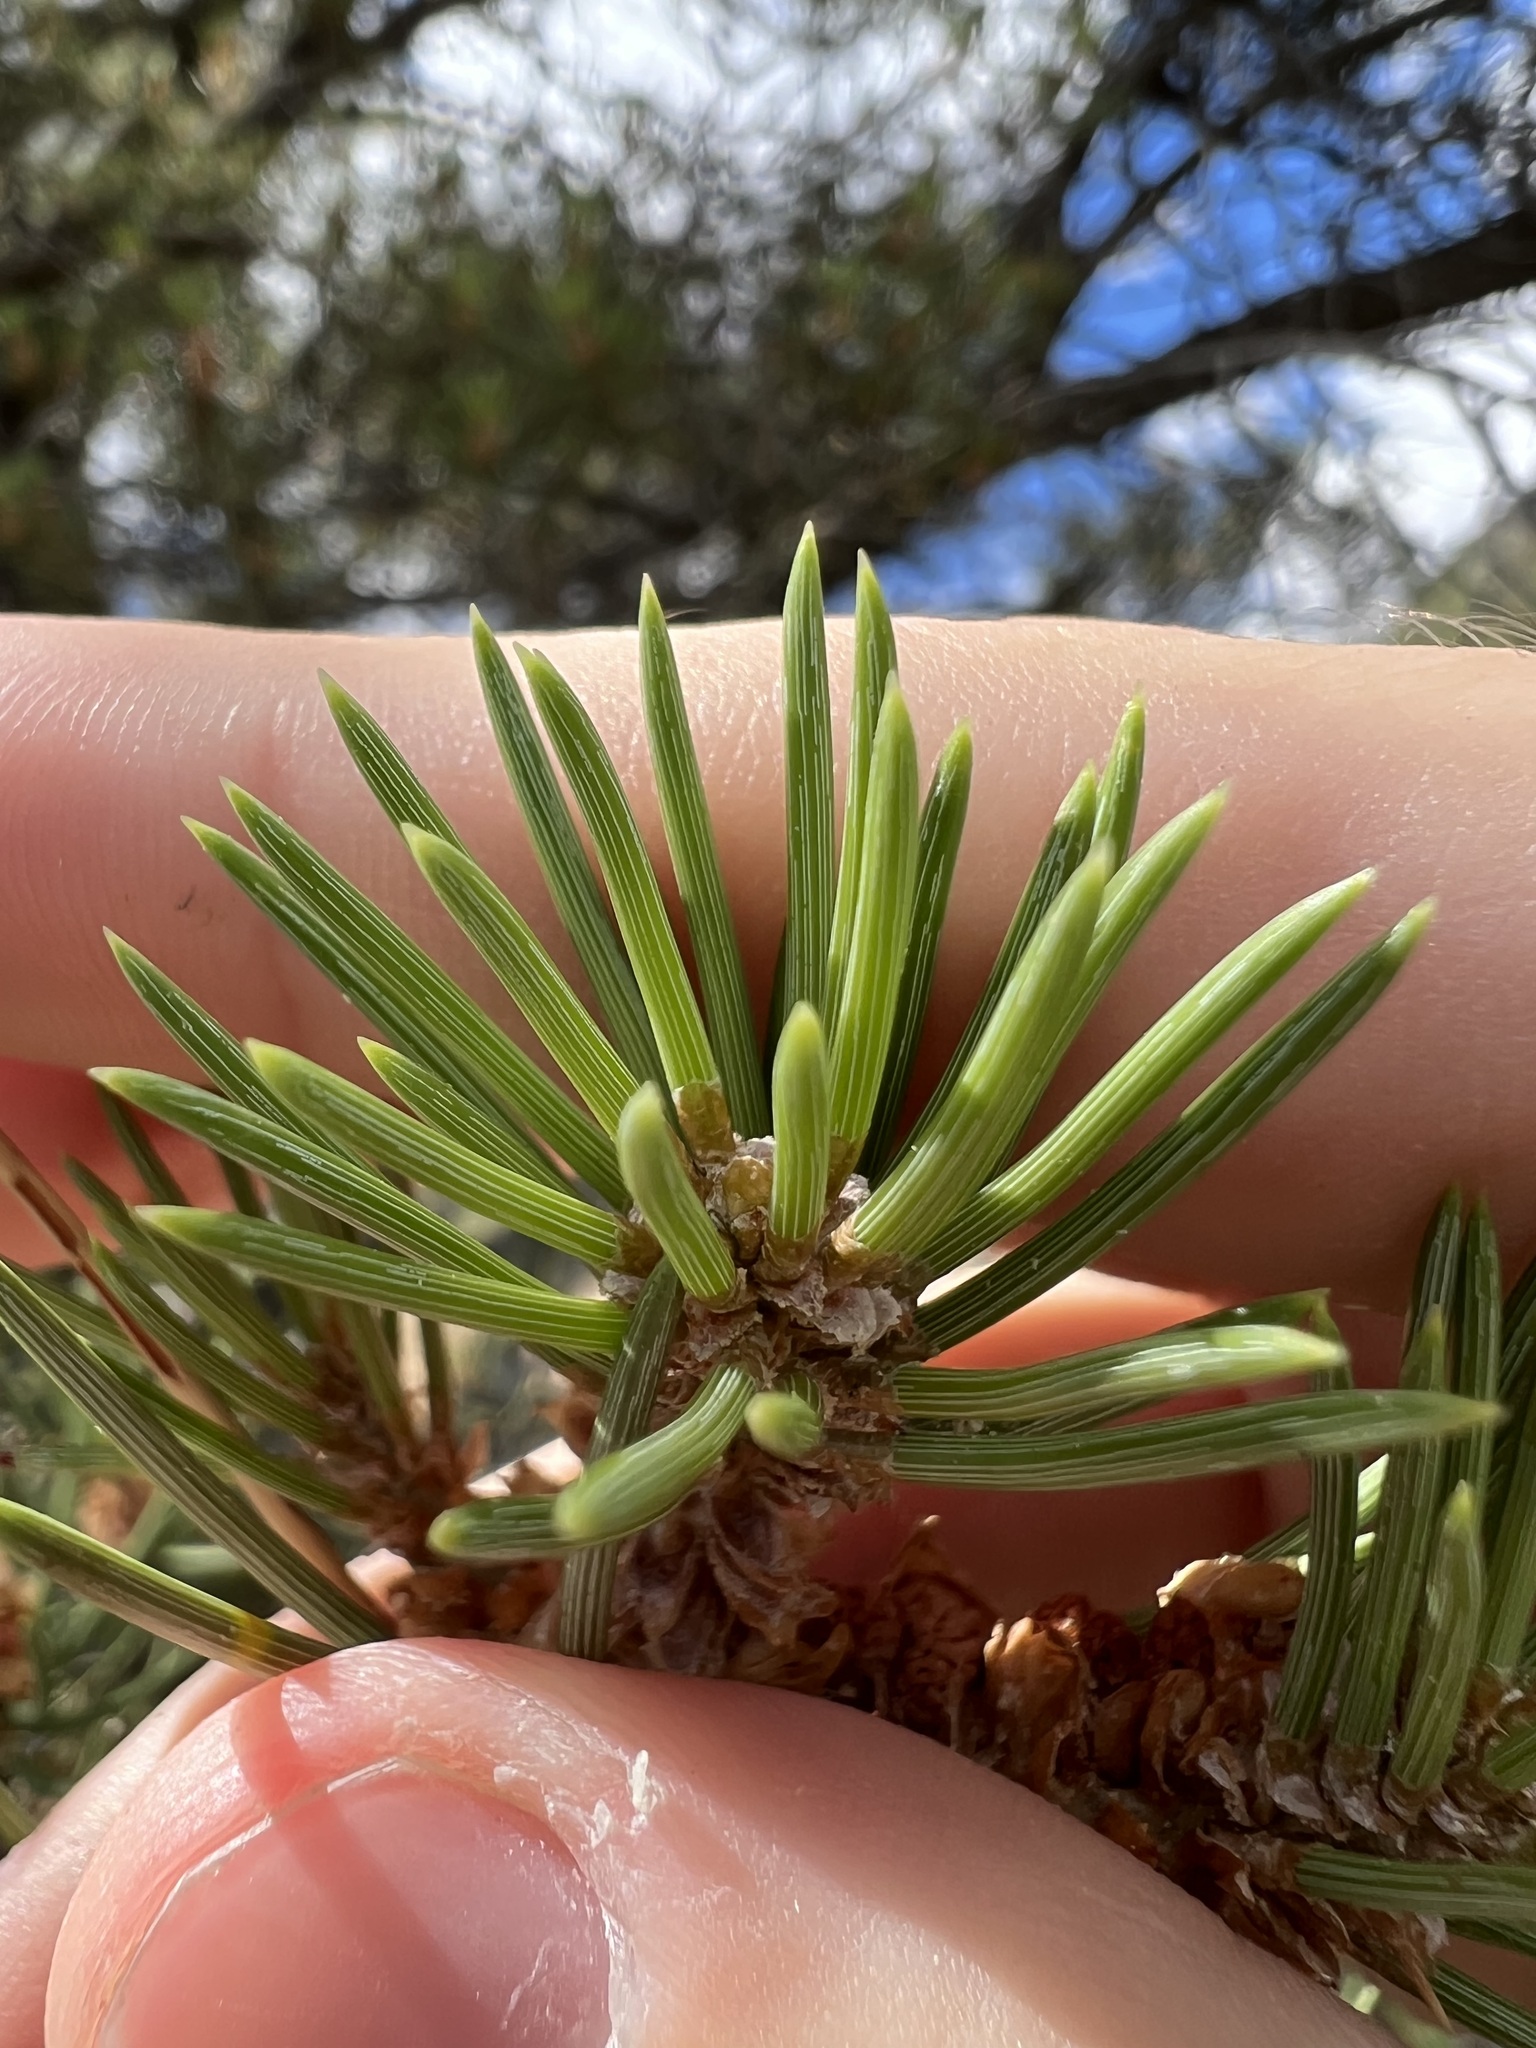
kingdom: Plantae
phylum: Tracheophyta
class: Pinopsida
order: Pinales
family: Pinaceae
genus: Pinus
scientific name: Pinus monophylla
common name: One-leaved nut pine
